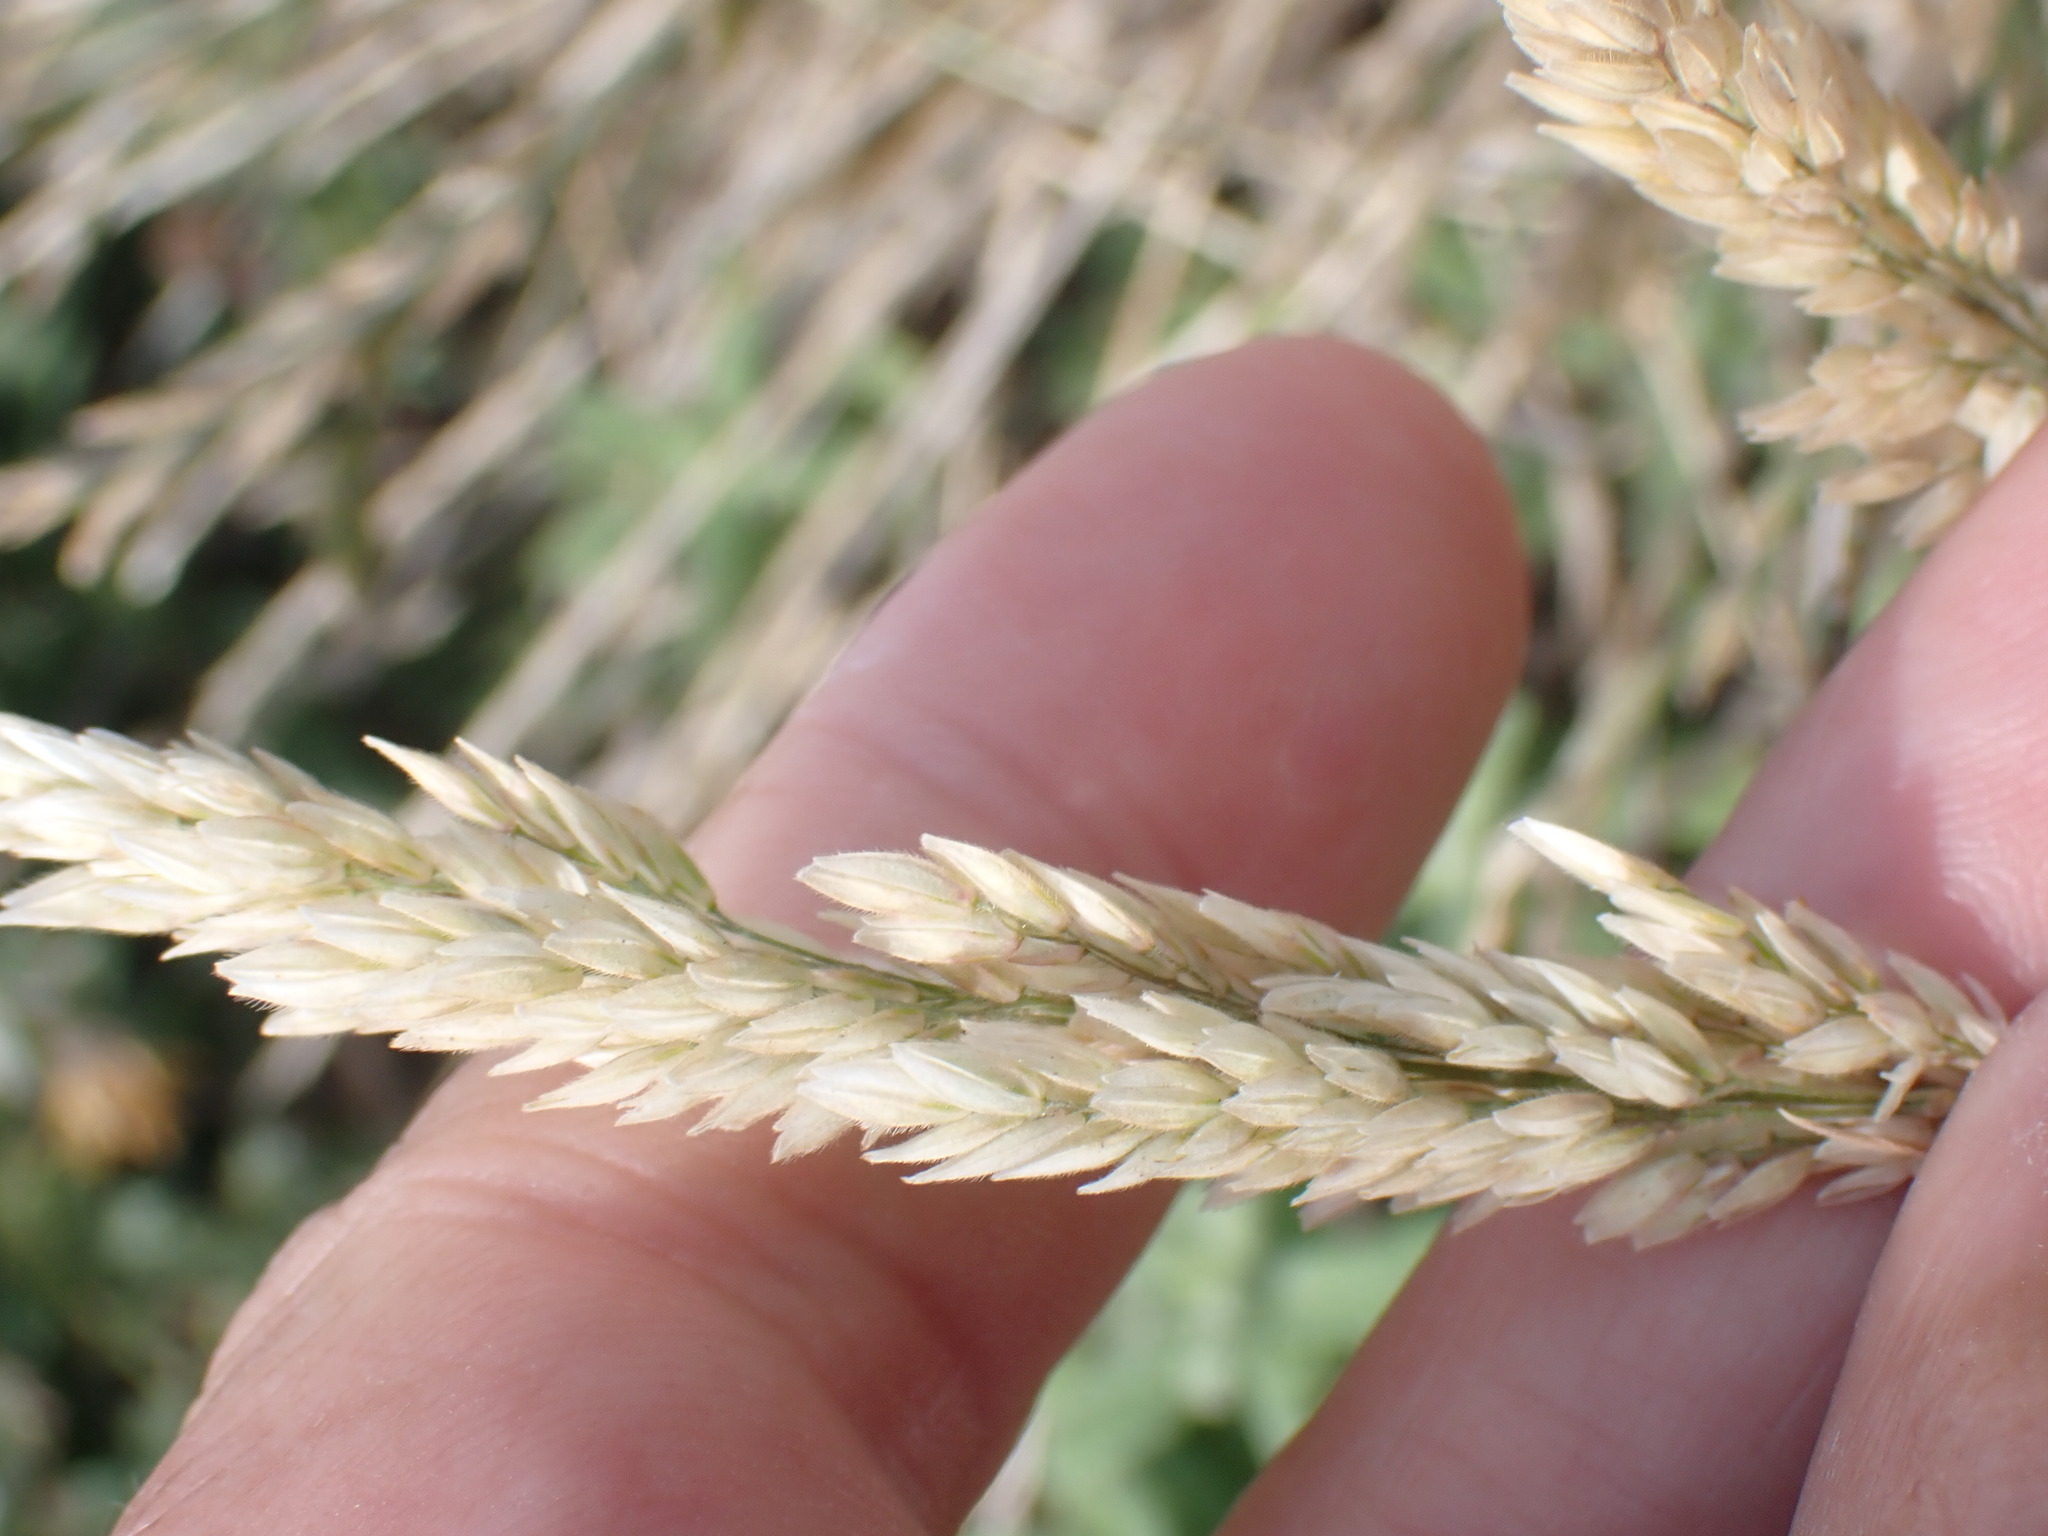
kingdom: Plantae
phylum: Tracheophyta
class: Liliopsida
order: Poales
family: Poaceae
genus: Holcus
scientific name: Holcus lanatus
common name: Yorkshire-fog
